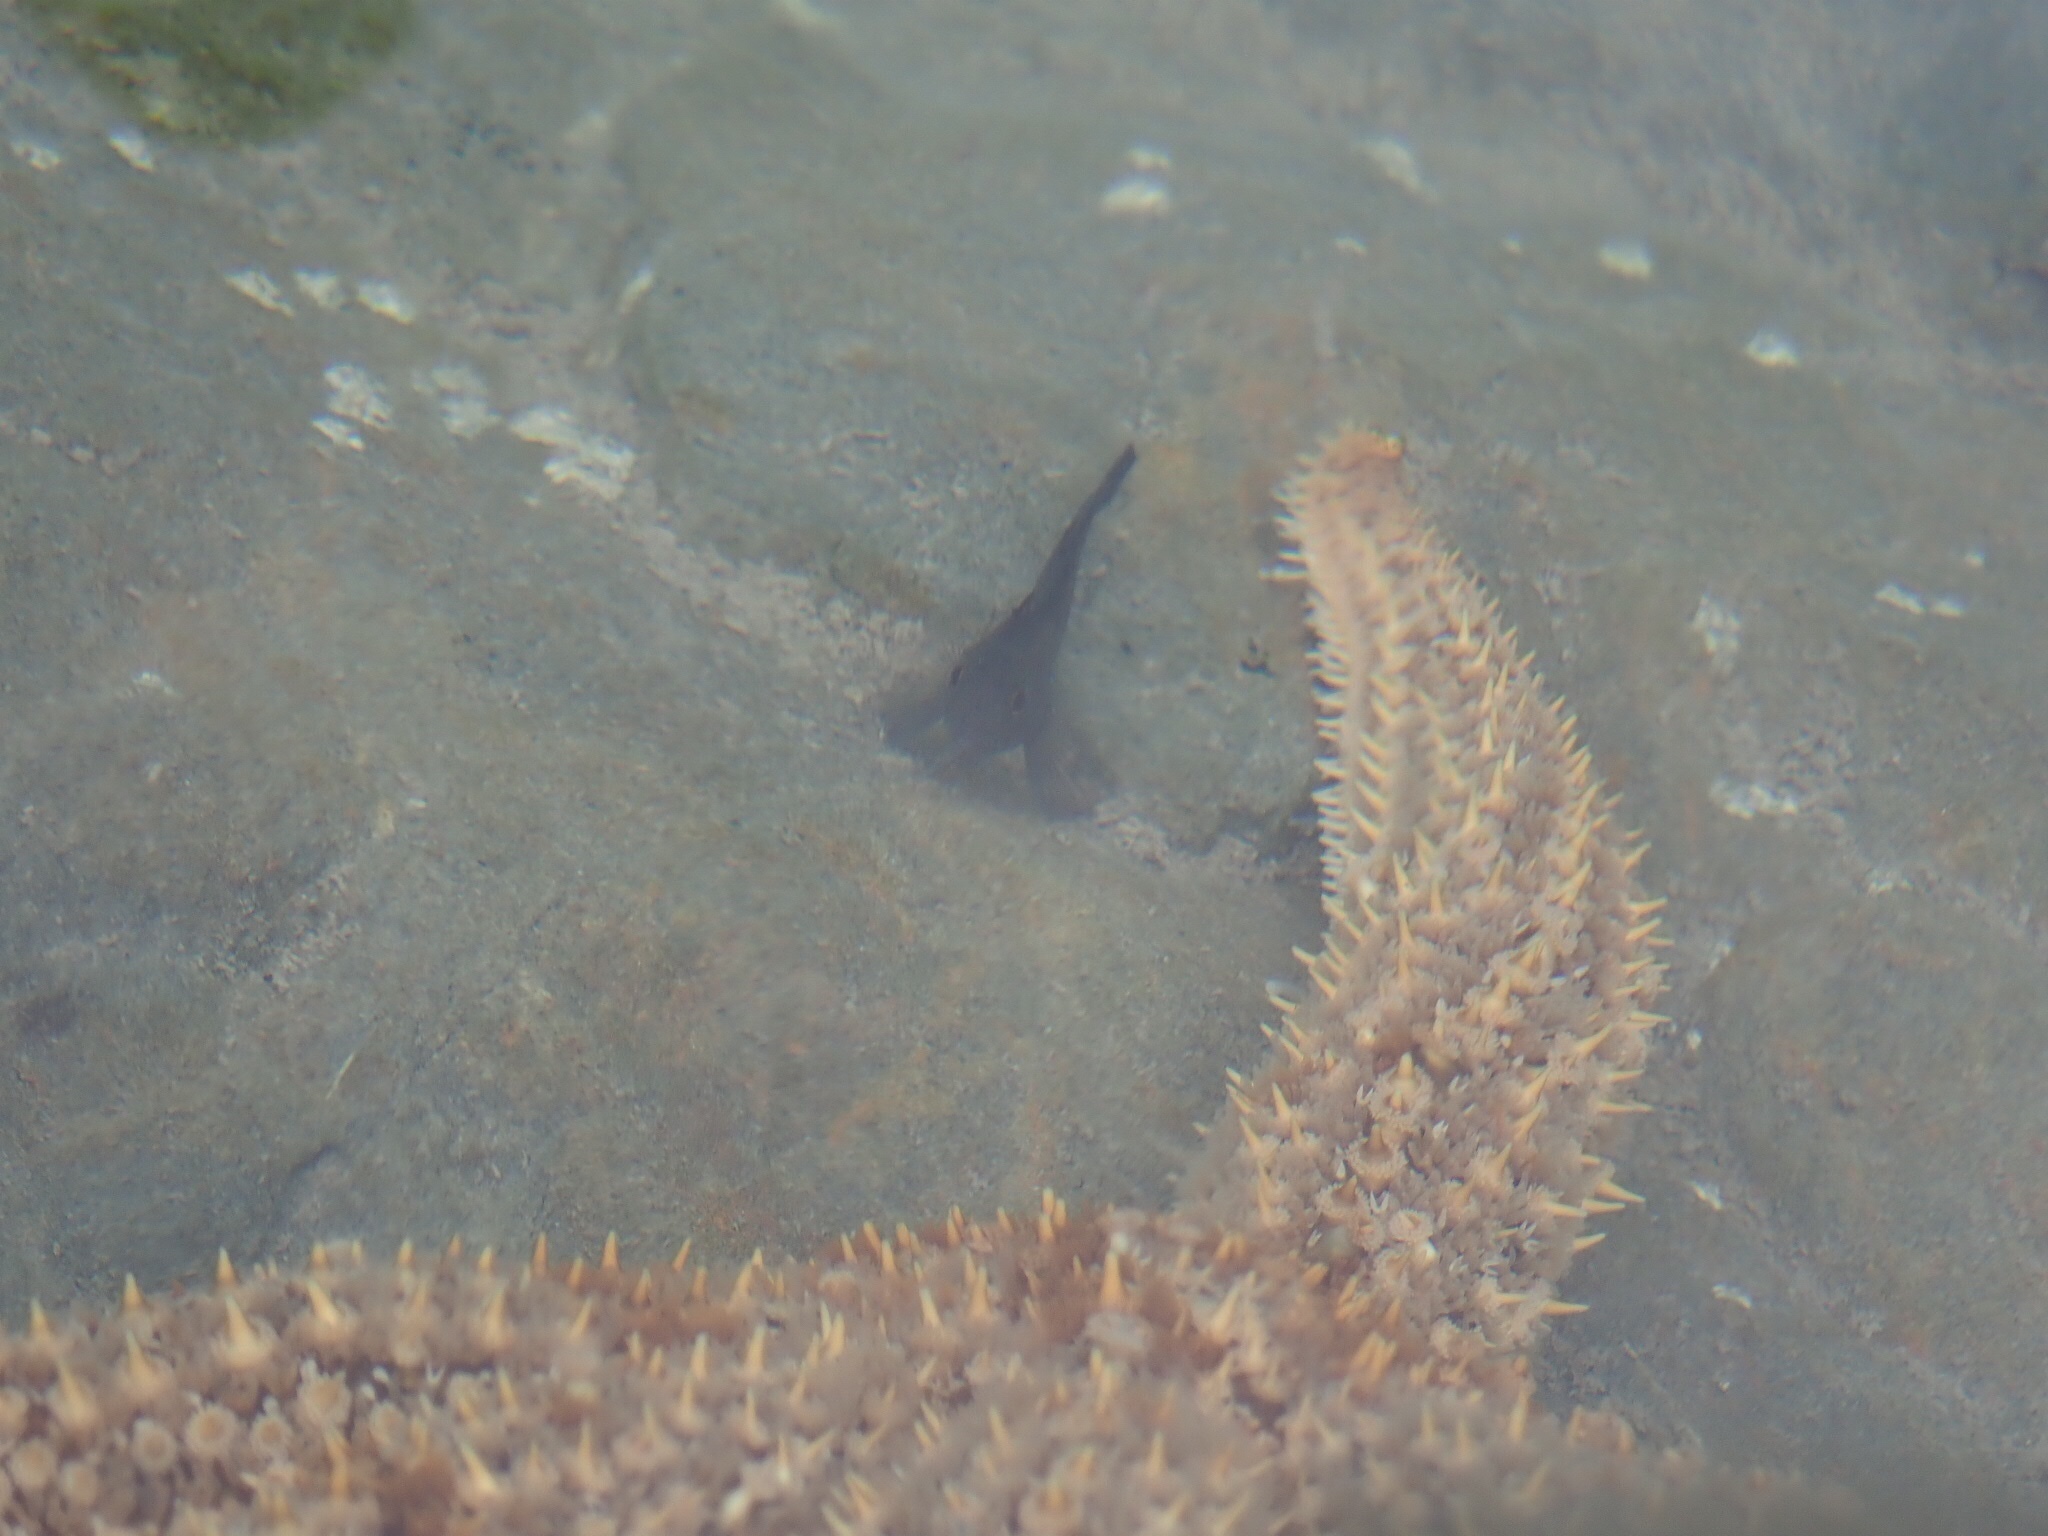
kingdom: Animalia
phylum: Chordata
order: Perciformes
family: Tripterygiidae
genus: Forsterygion
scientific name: Forsterygion lapillum
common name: Common triplefin
